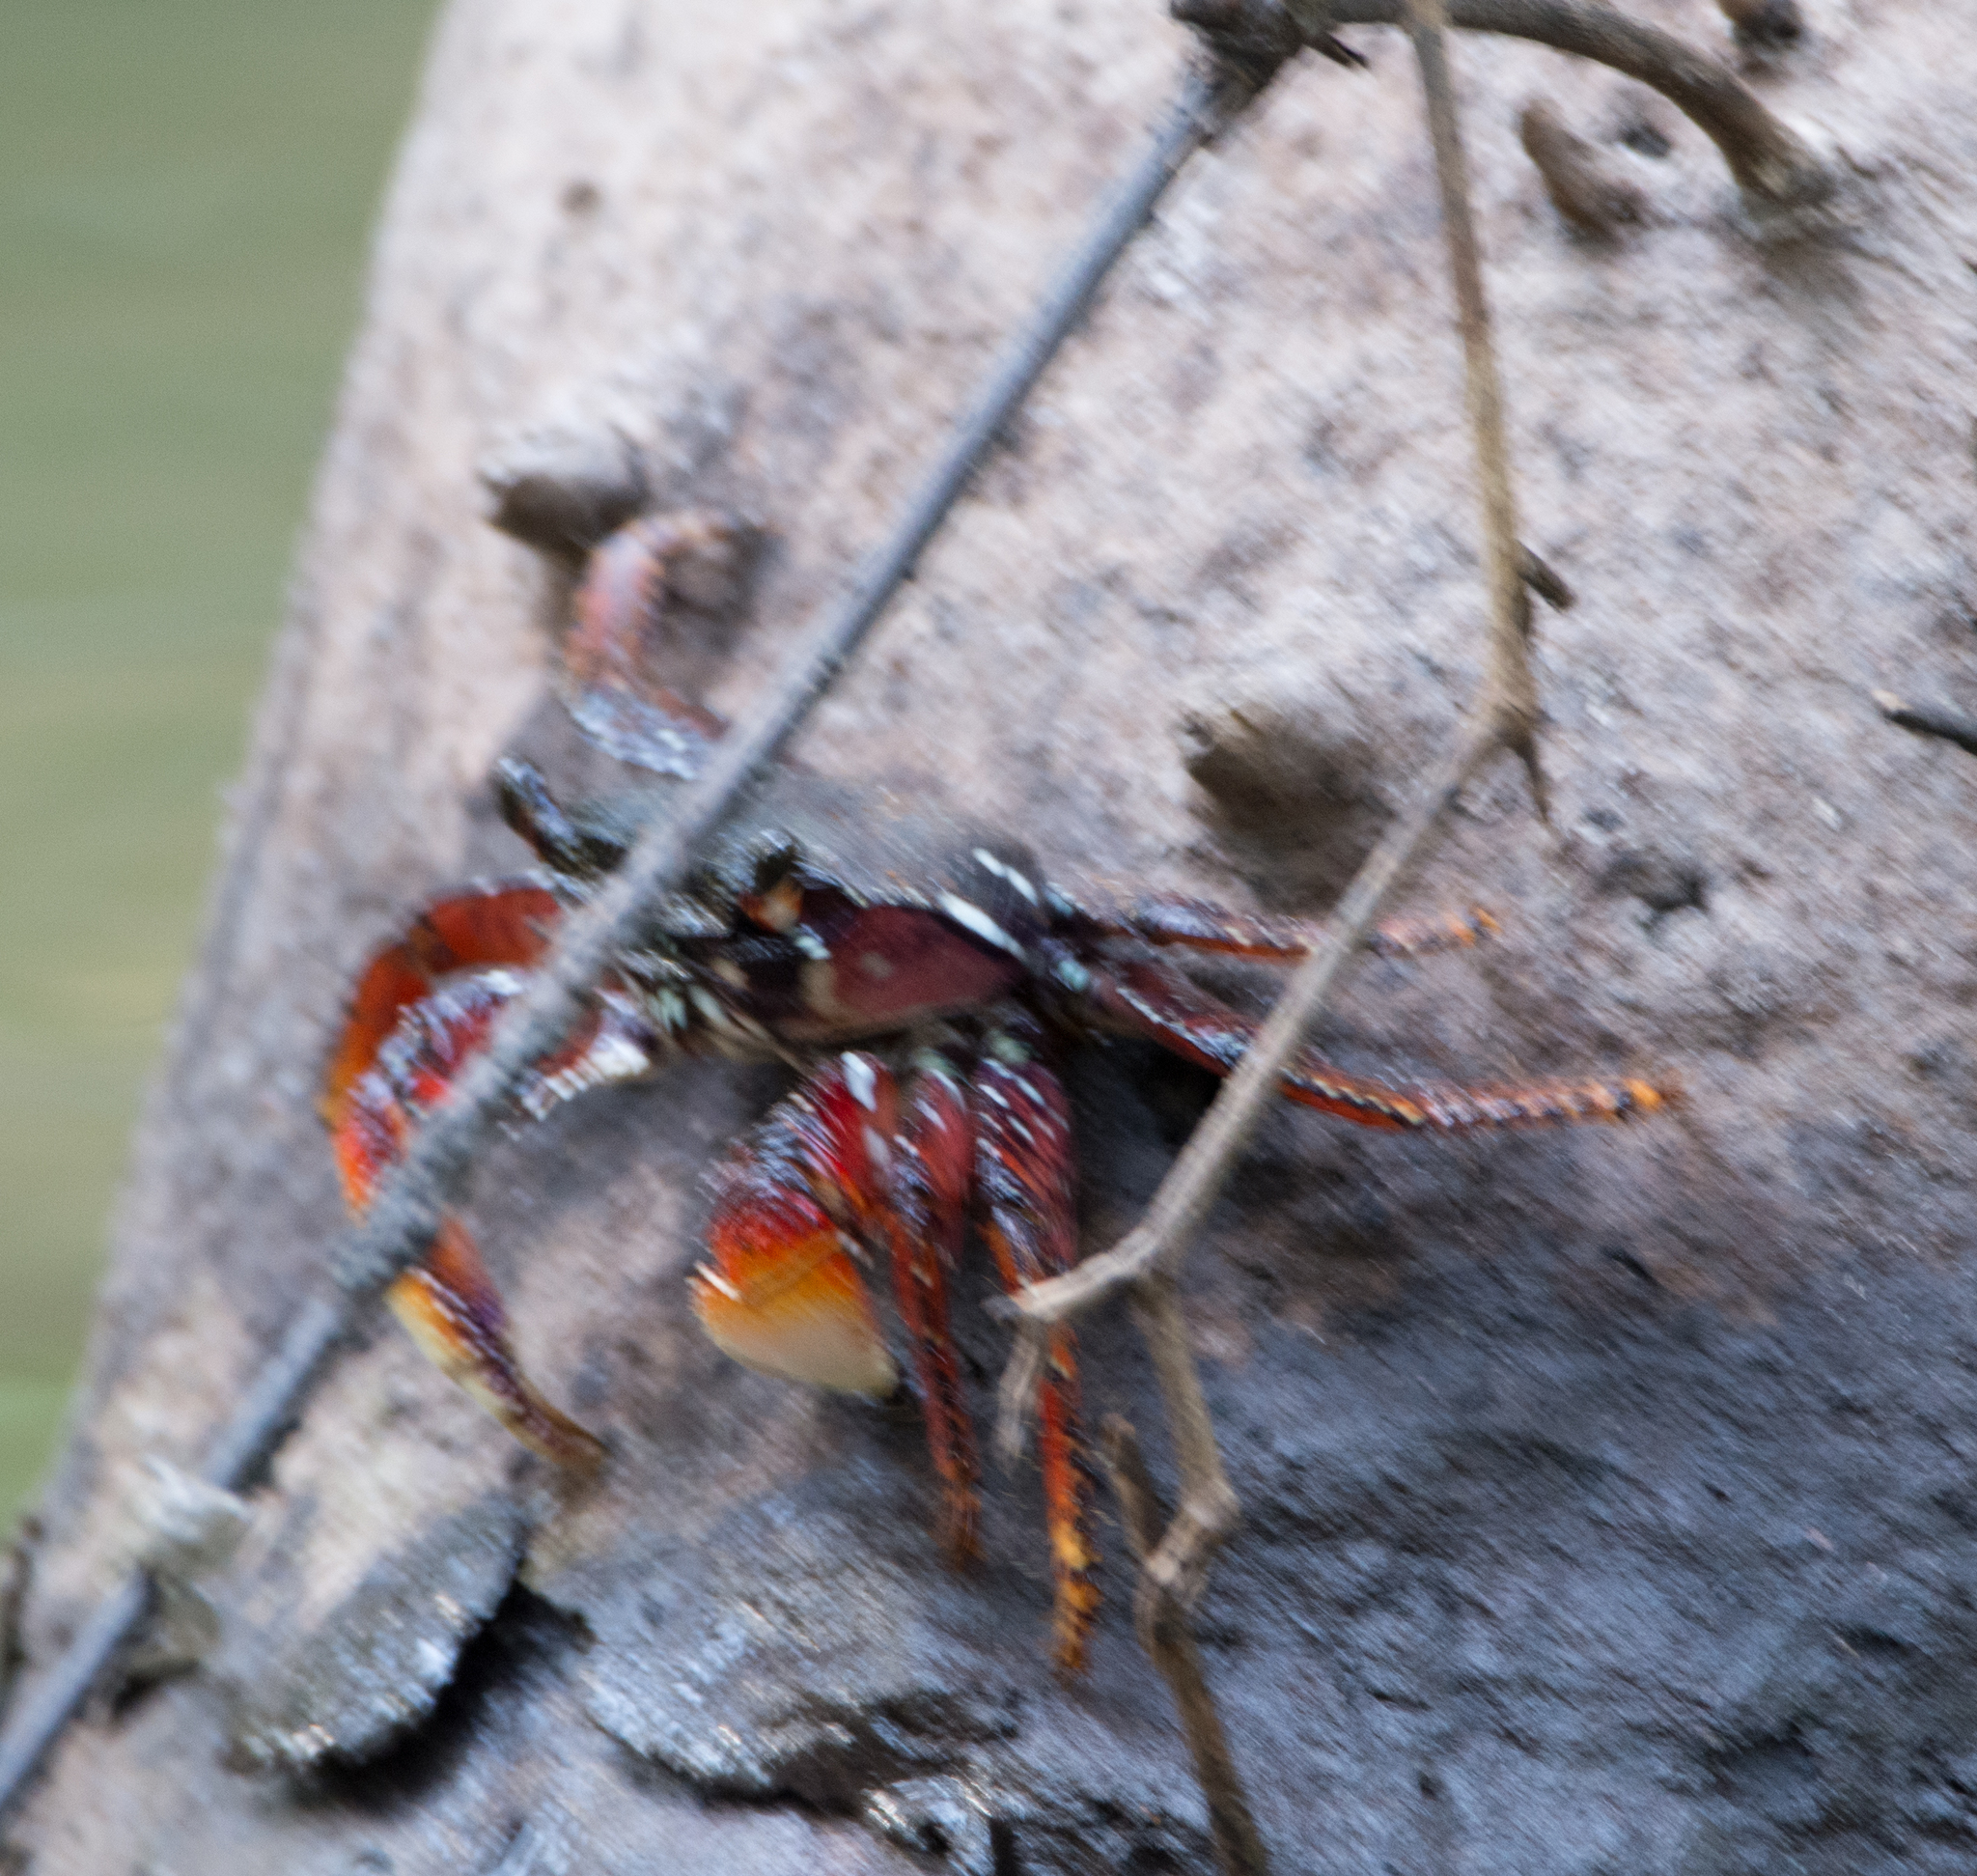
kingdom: Animalia
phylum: Arthropoda
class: Malacostraca
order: Decapoda
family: Grapsidae
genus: Goniopsis
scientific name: Goniopsis cruentata
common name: Mangrove crab
